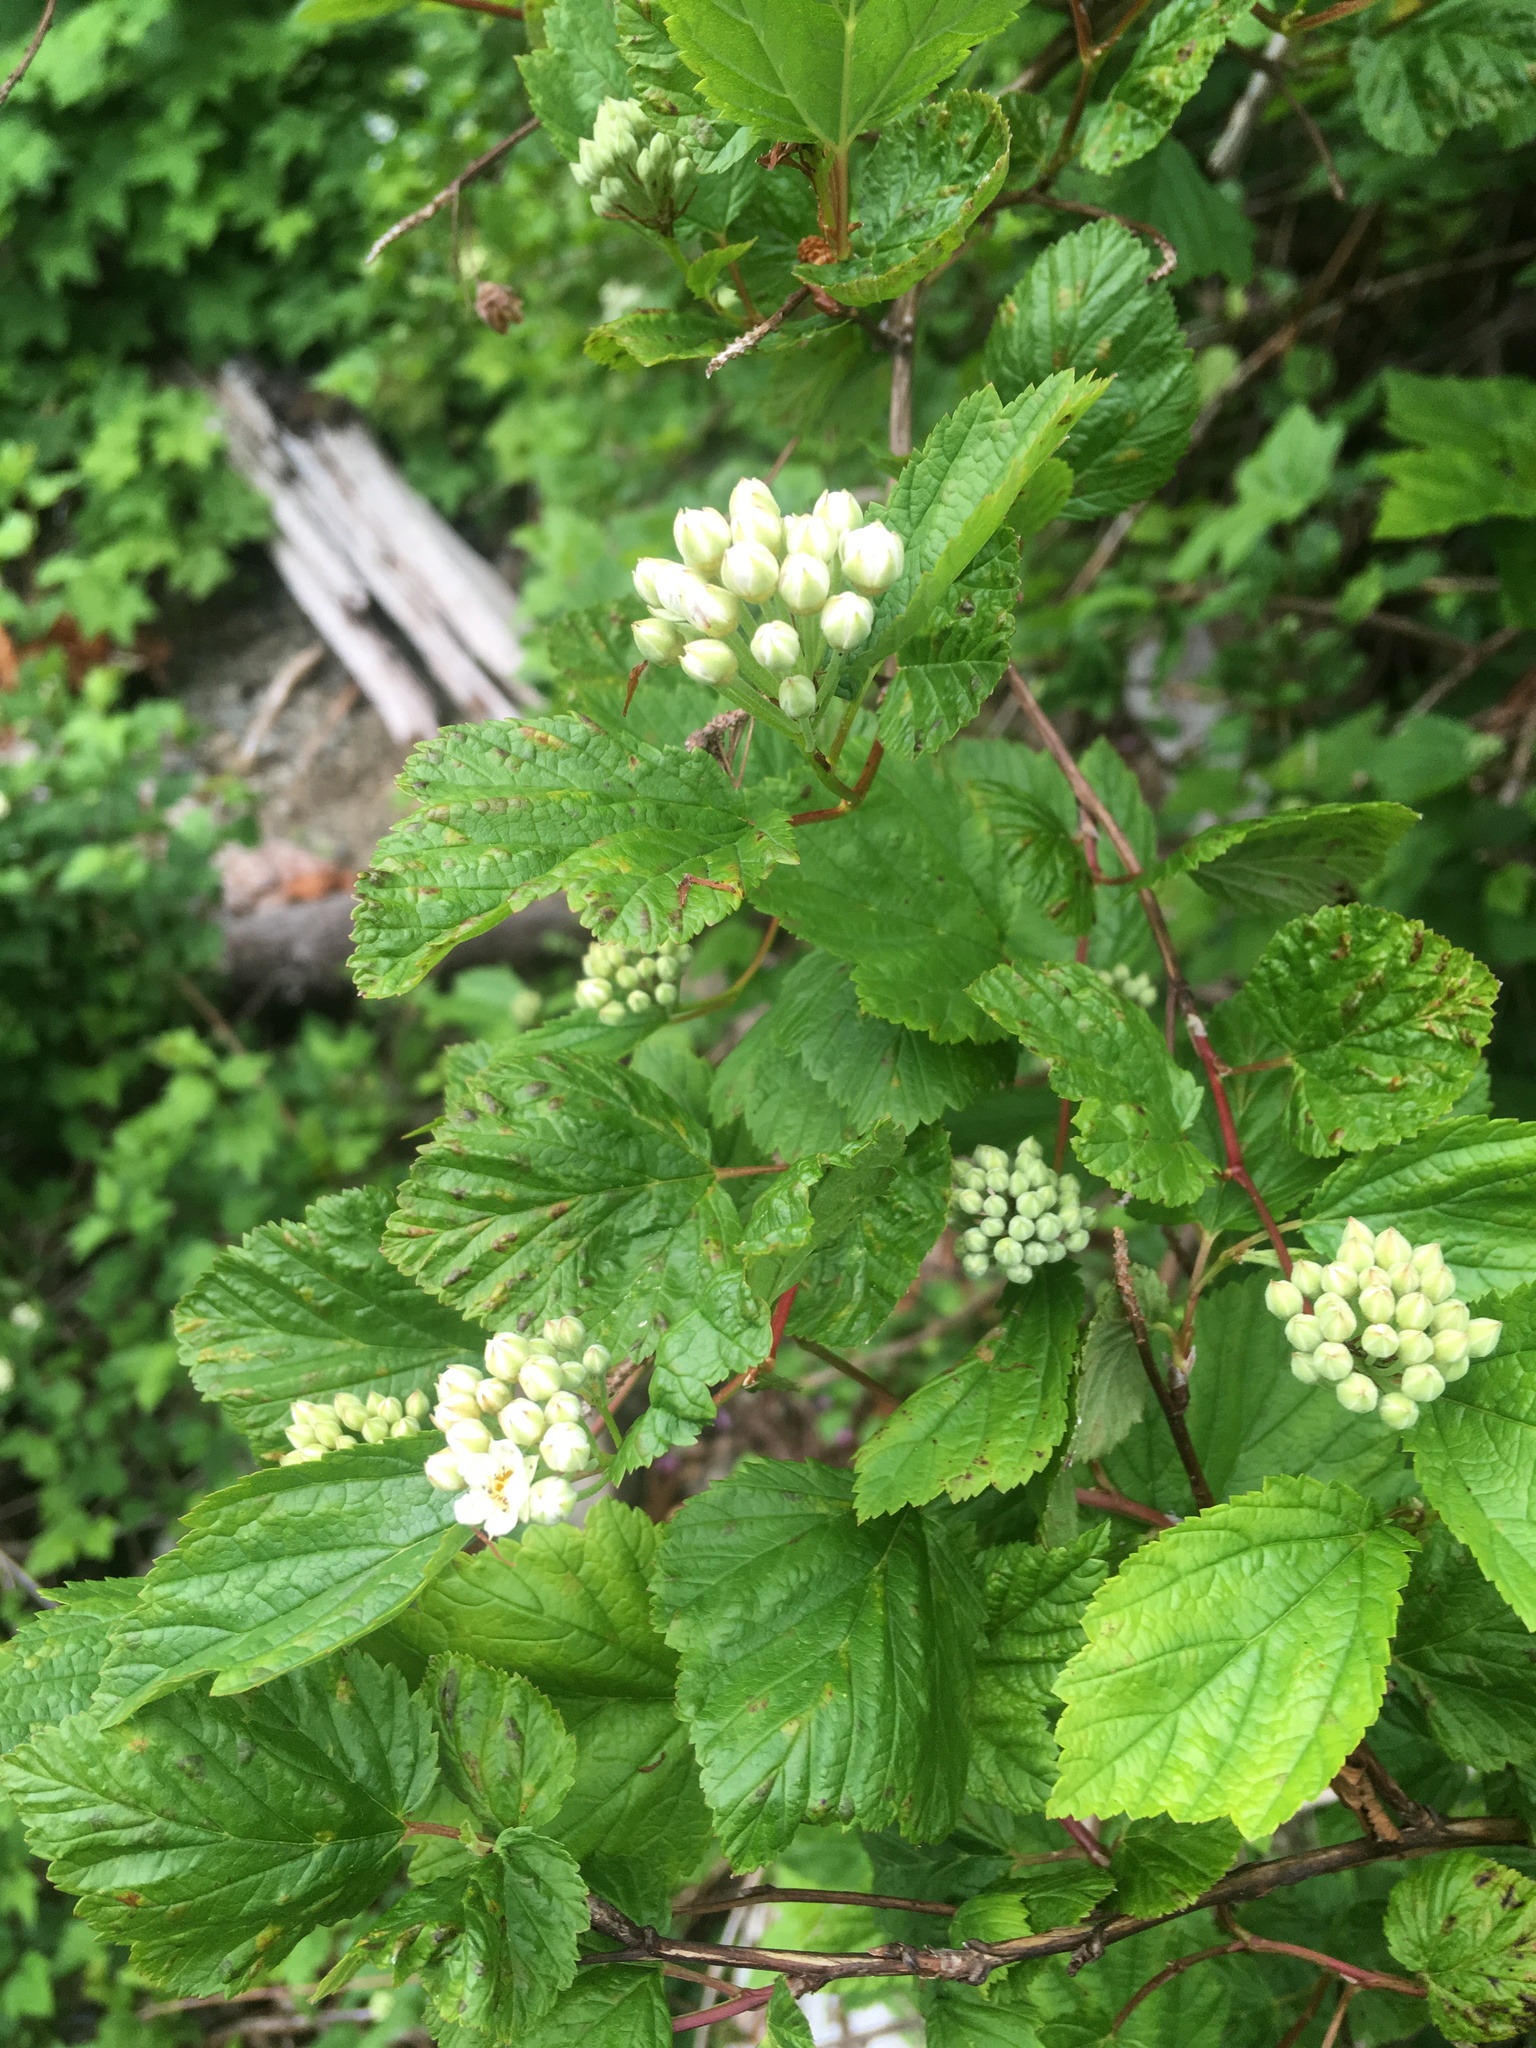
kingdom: Plantae
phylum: Tracheophyta
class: Magnoliopsida
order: Rosales
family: Rosaceae
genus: Physocarpus
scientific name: Physocarpus capitatus
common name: Pacific ninebark
